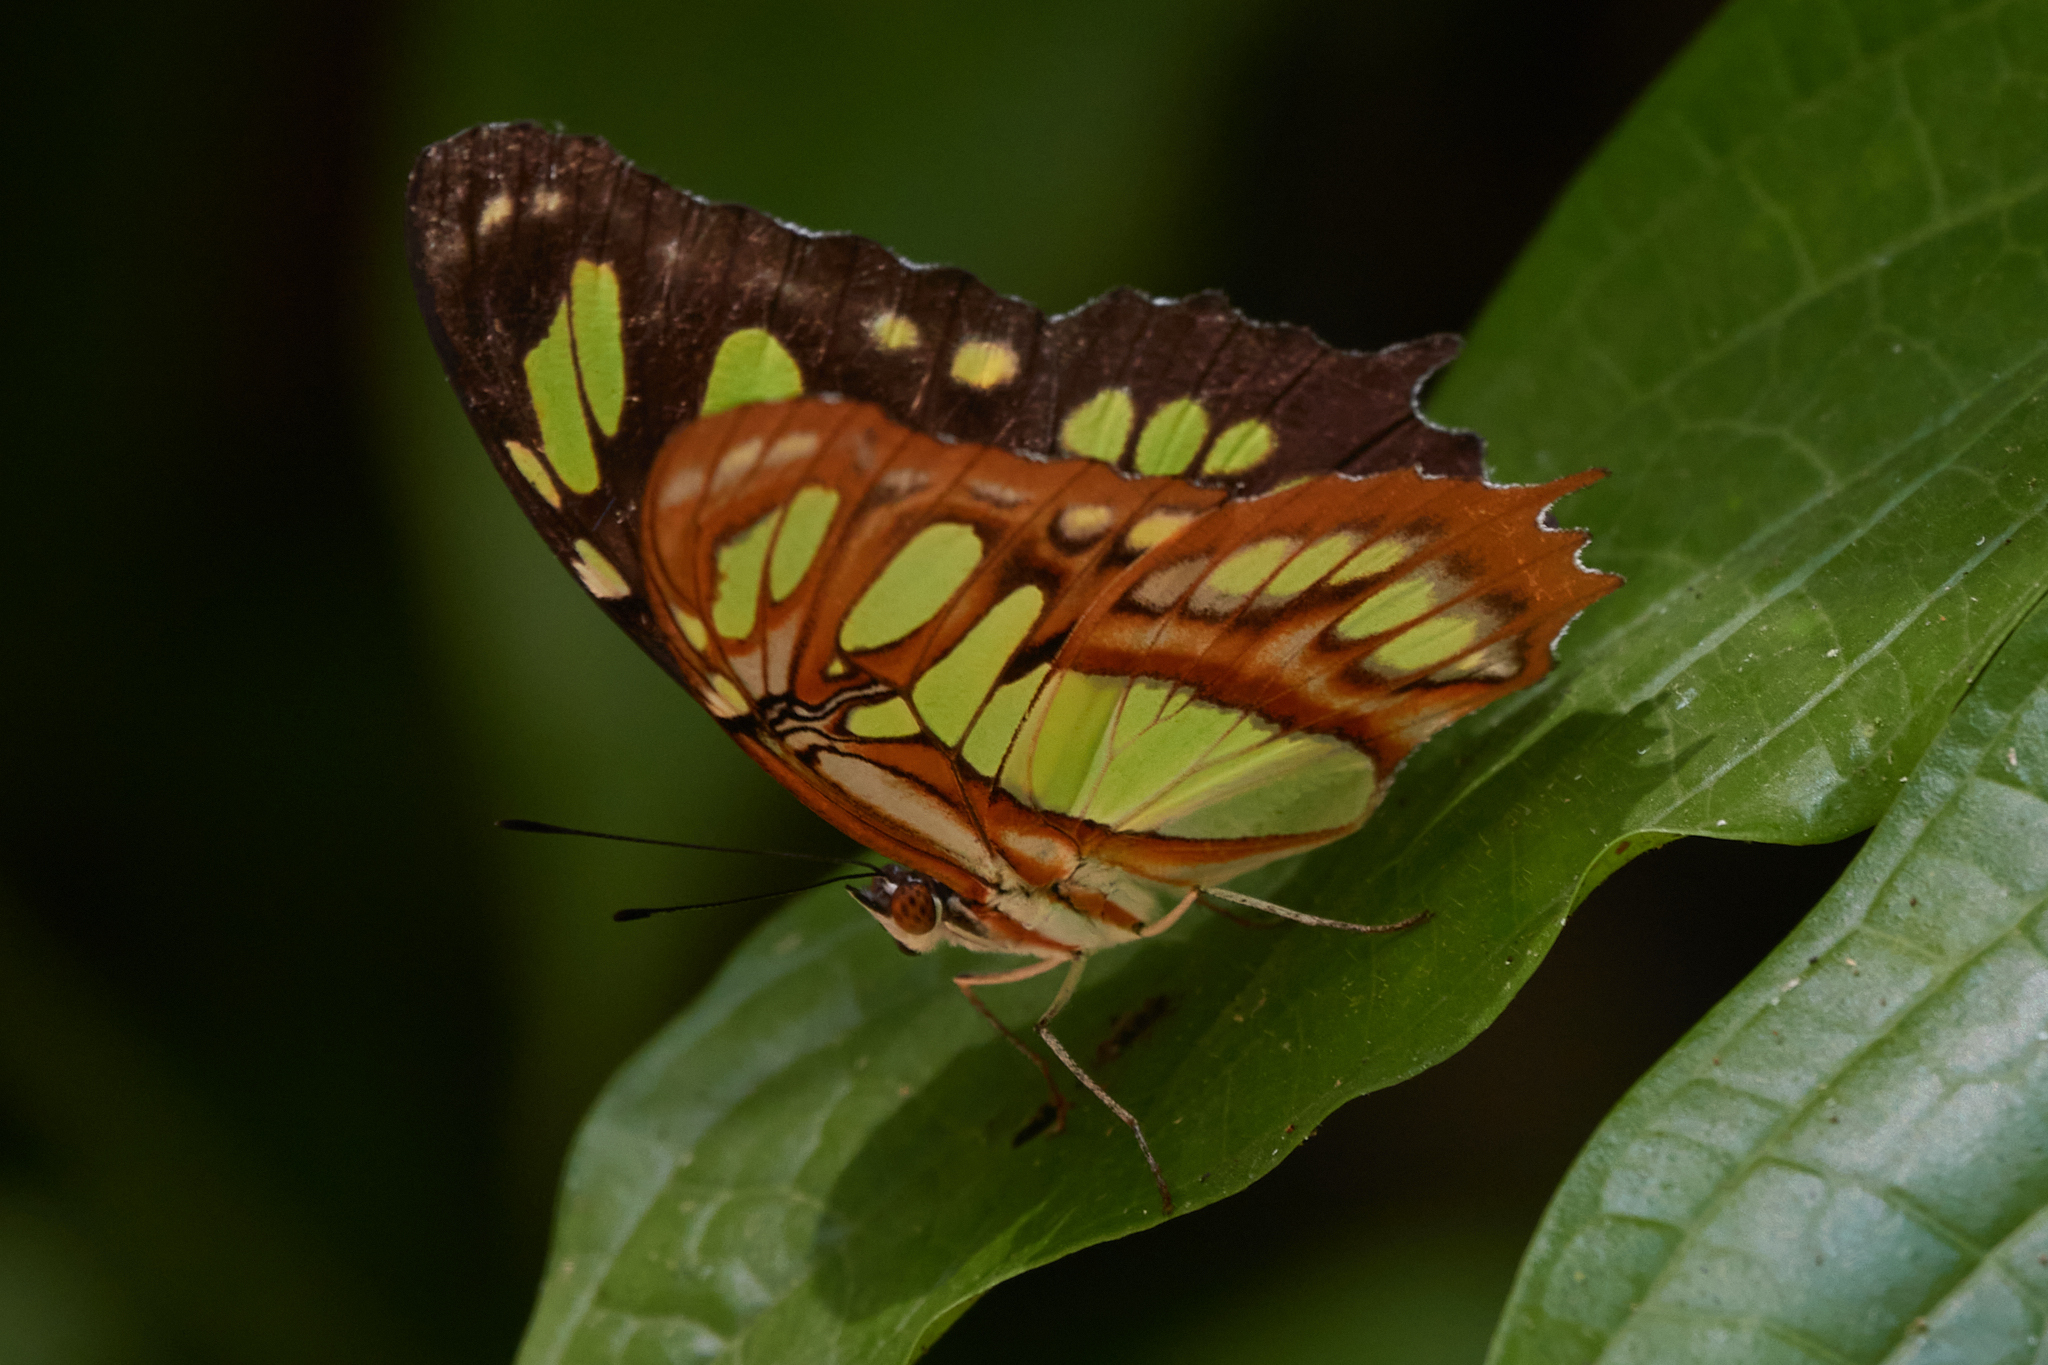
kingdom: Animalia
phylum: Arthropoda
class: Insecta
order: Lepidoptera
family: Nymphalidae
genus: Siproeta
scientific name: Siproeta stelenes
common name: Malachite
